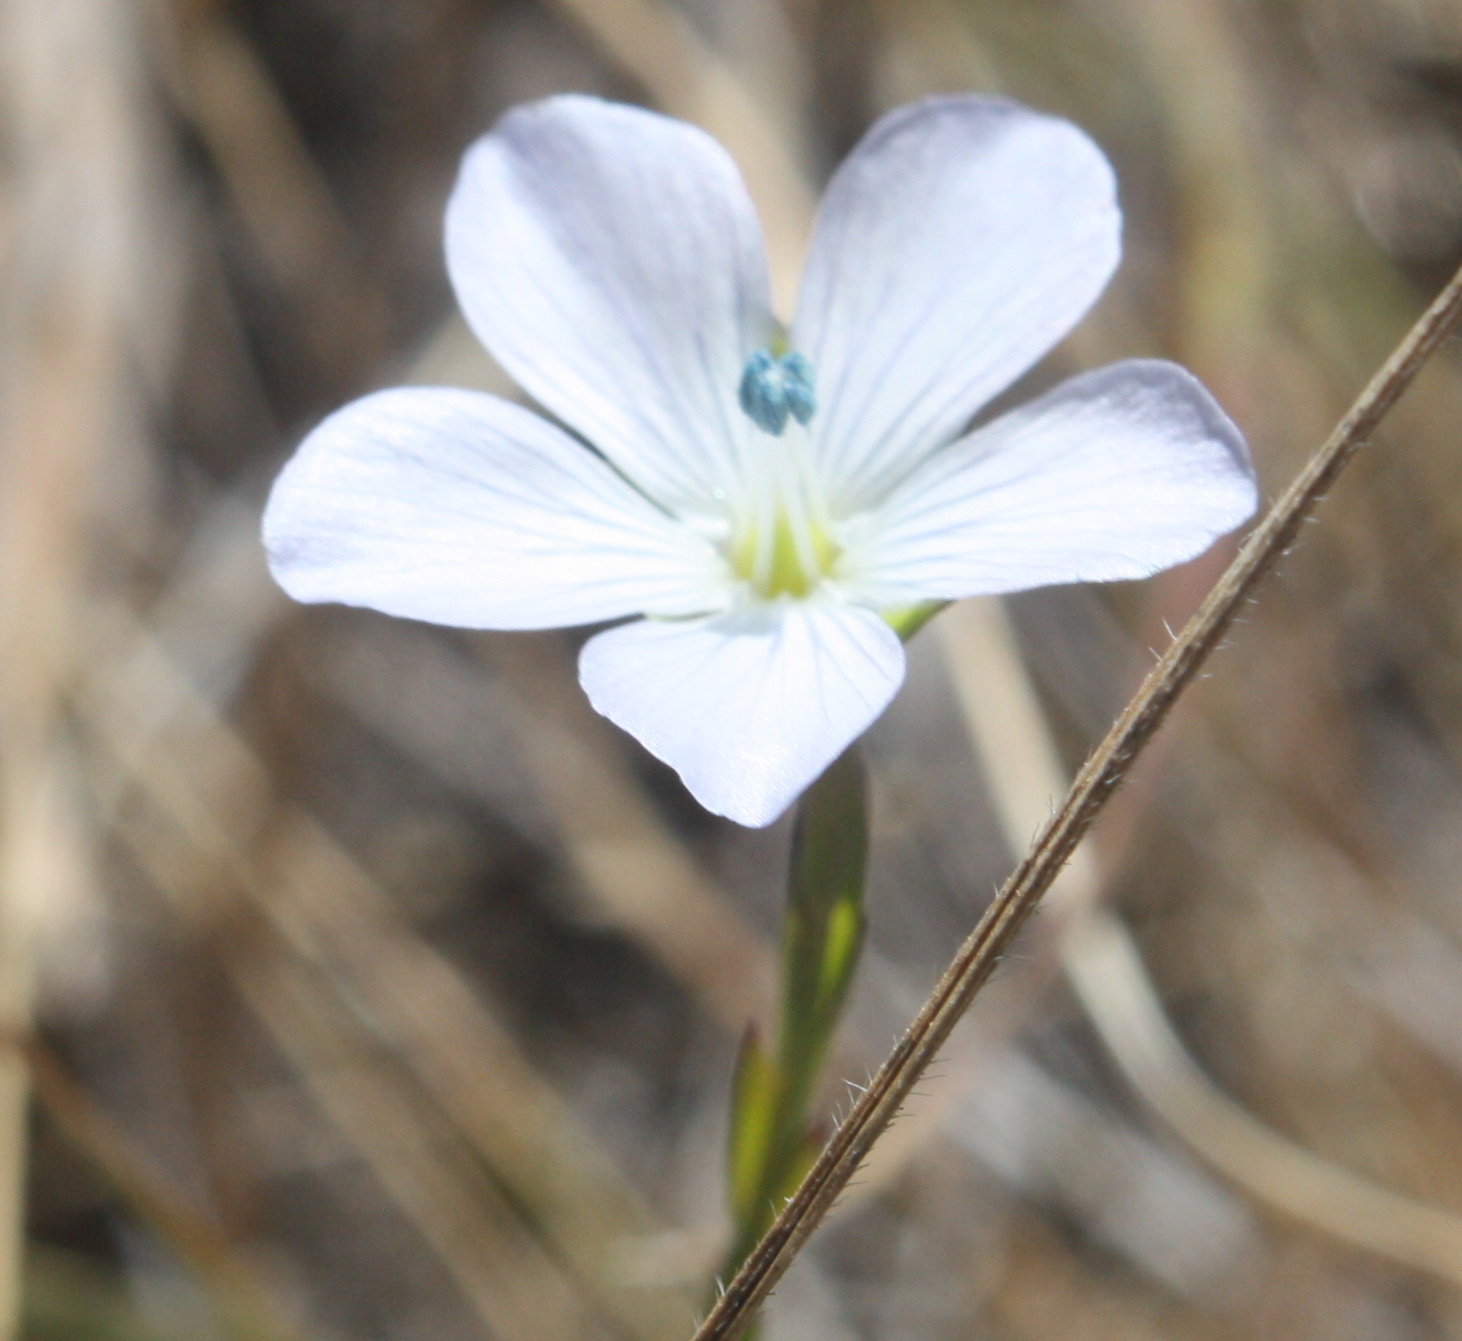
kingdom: Plantae
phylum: Tracheophyta
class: Magnoliopsida
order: Malpighiales
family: Linaceae
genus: Linum
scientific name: Linum bienne
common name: Pale flax
